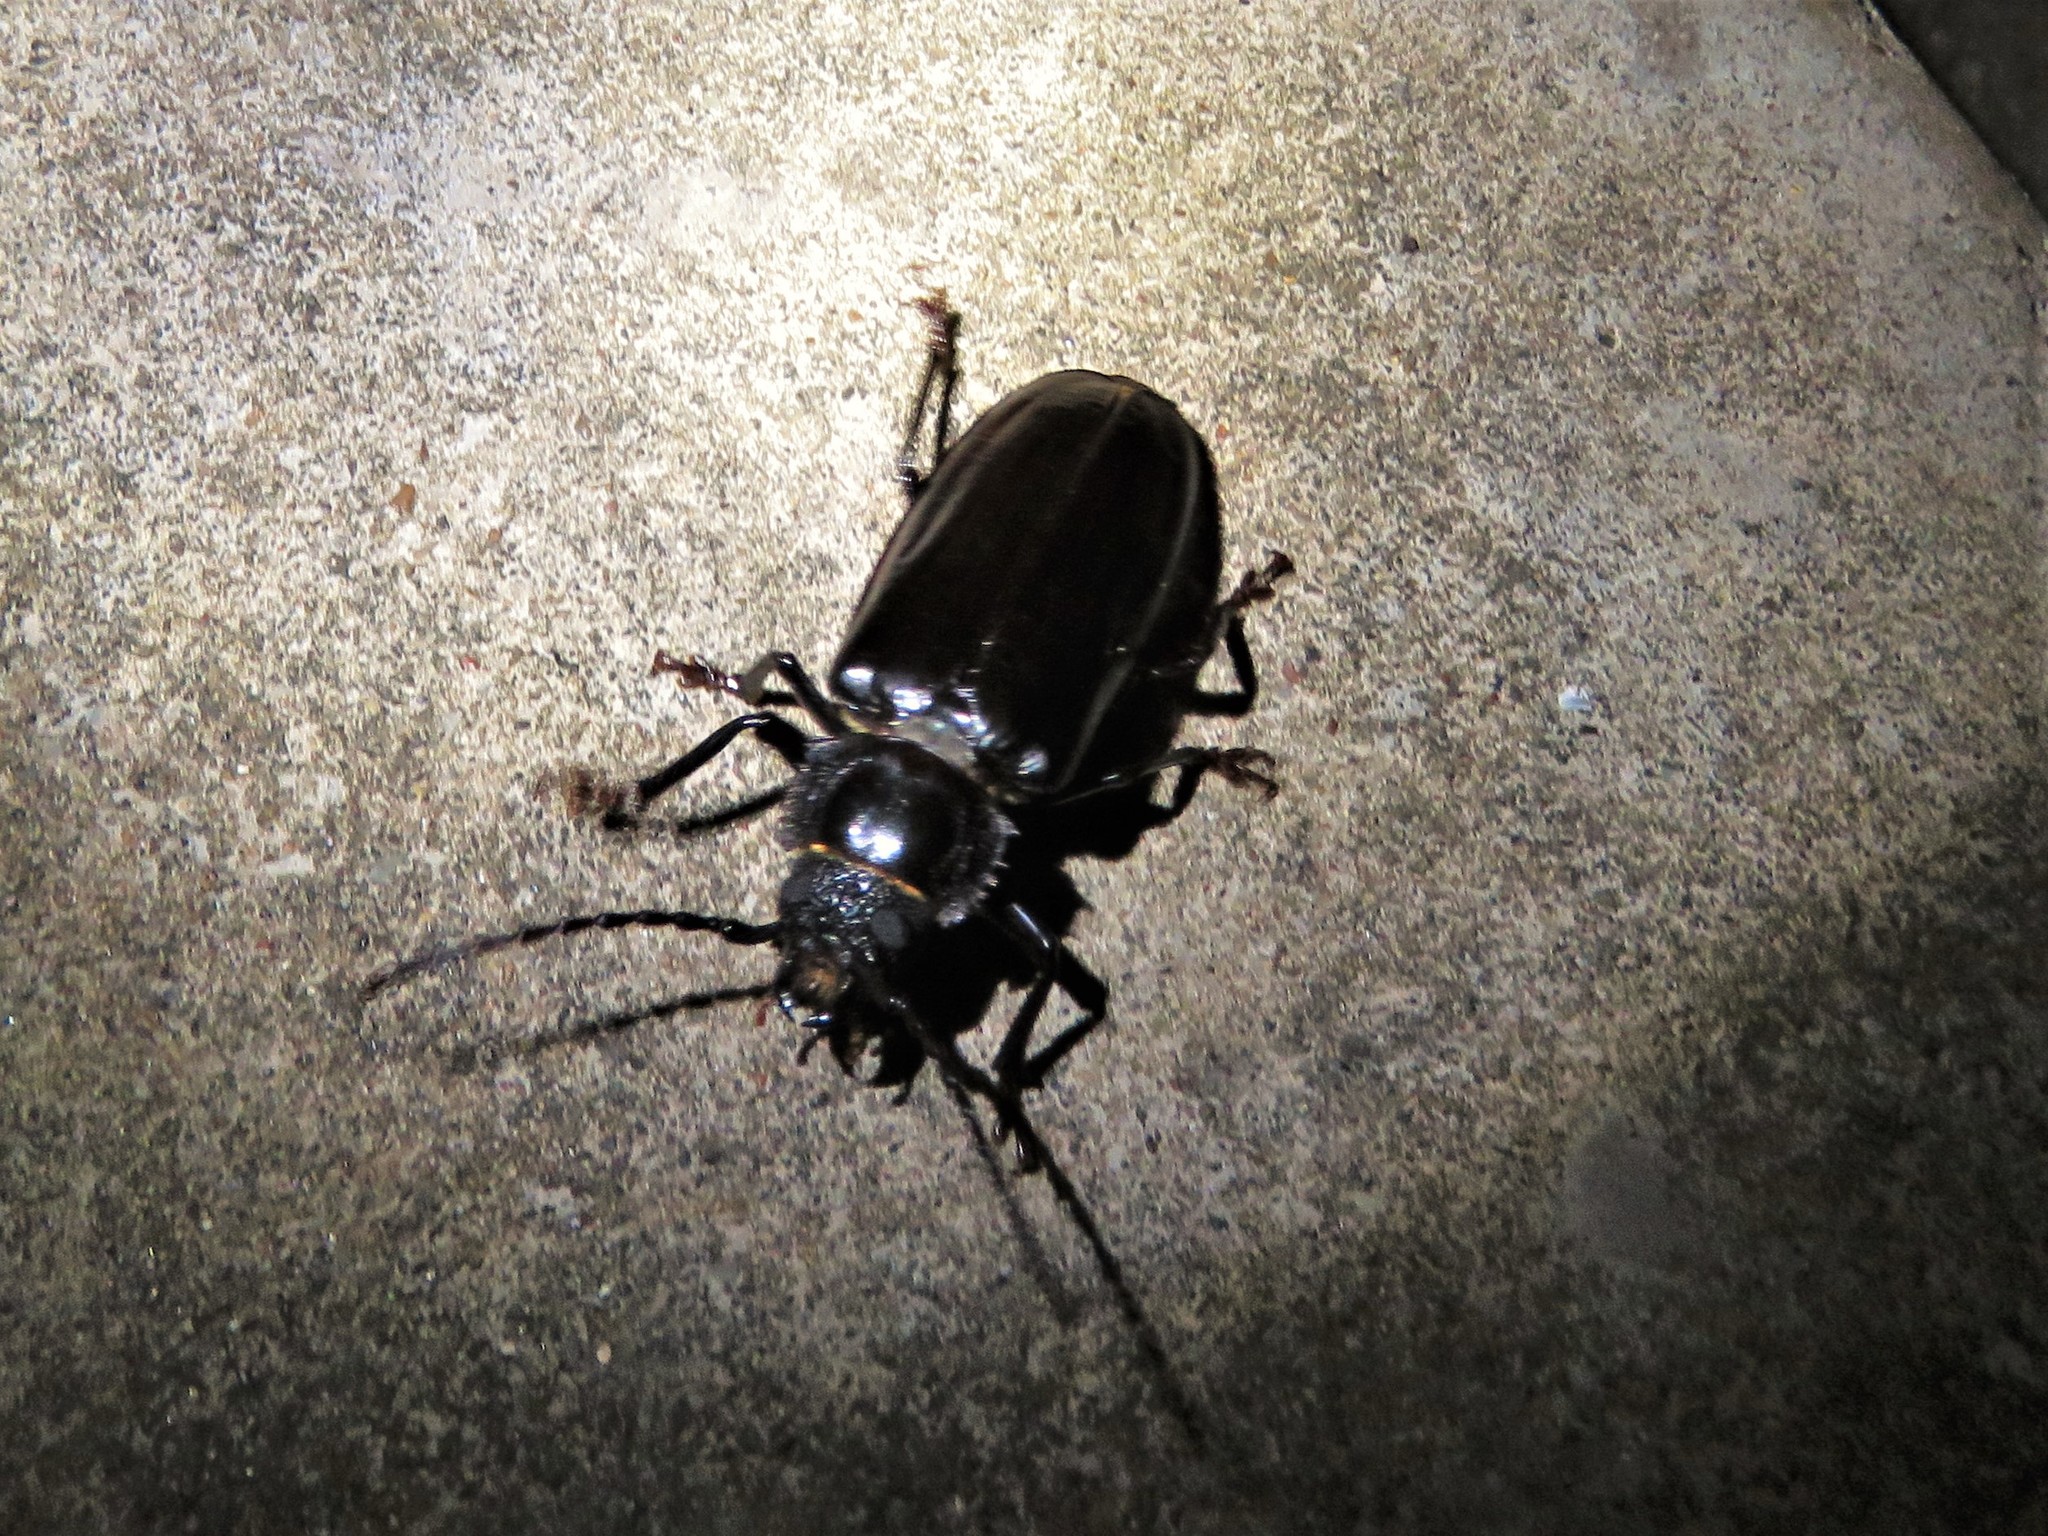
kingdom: Animalia
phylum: Arthropoda
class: Insecta
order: Coleoptera
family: Cerambycidae
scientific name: Cerambycidae
